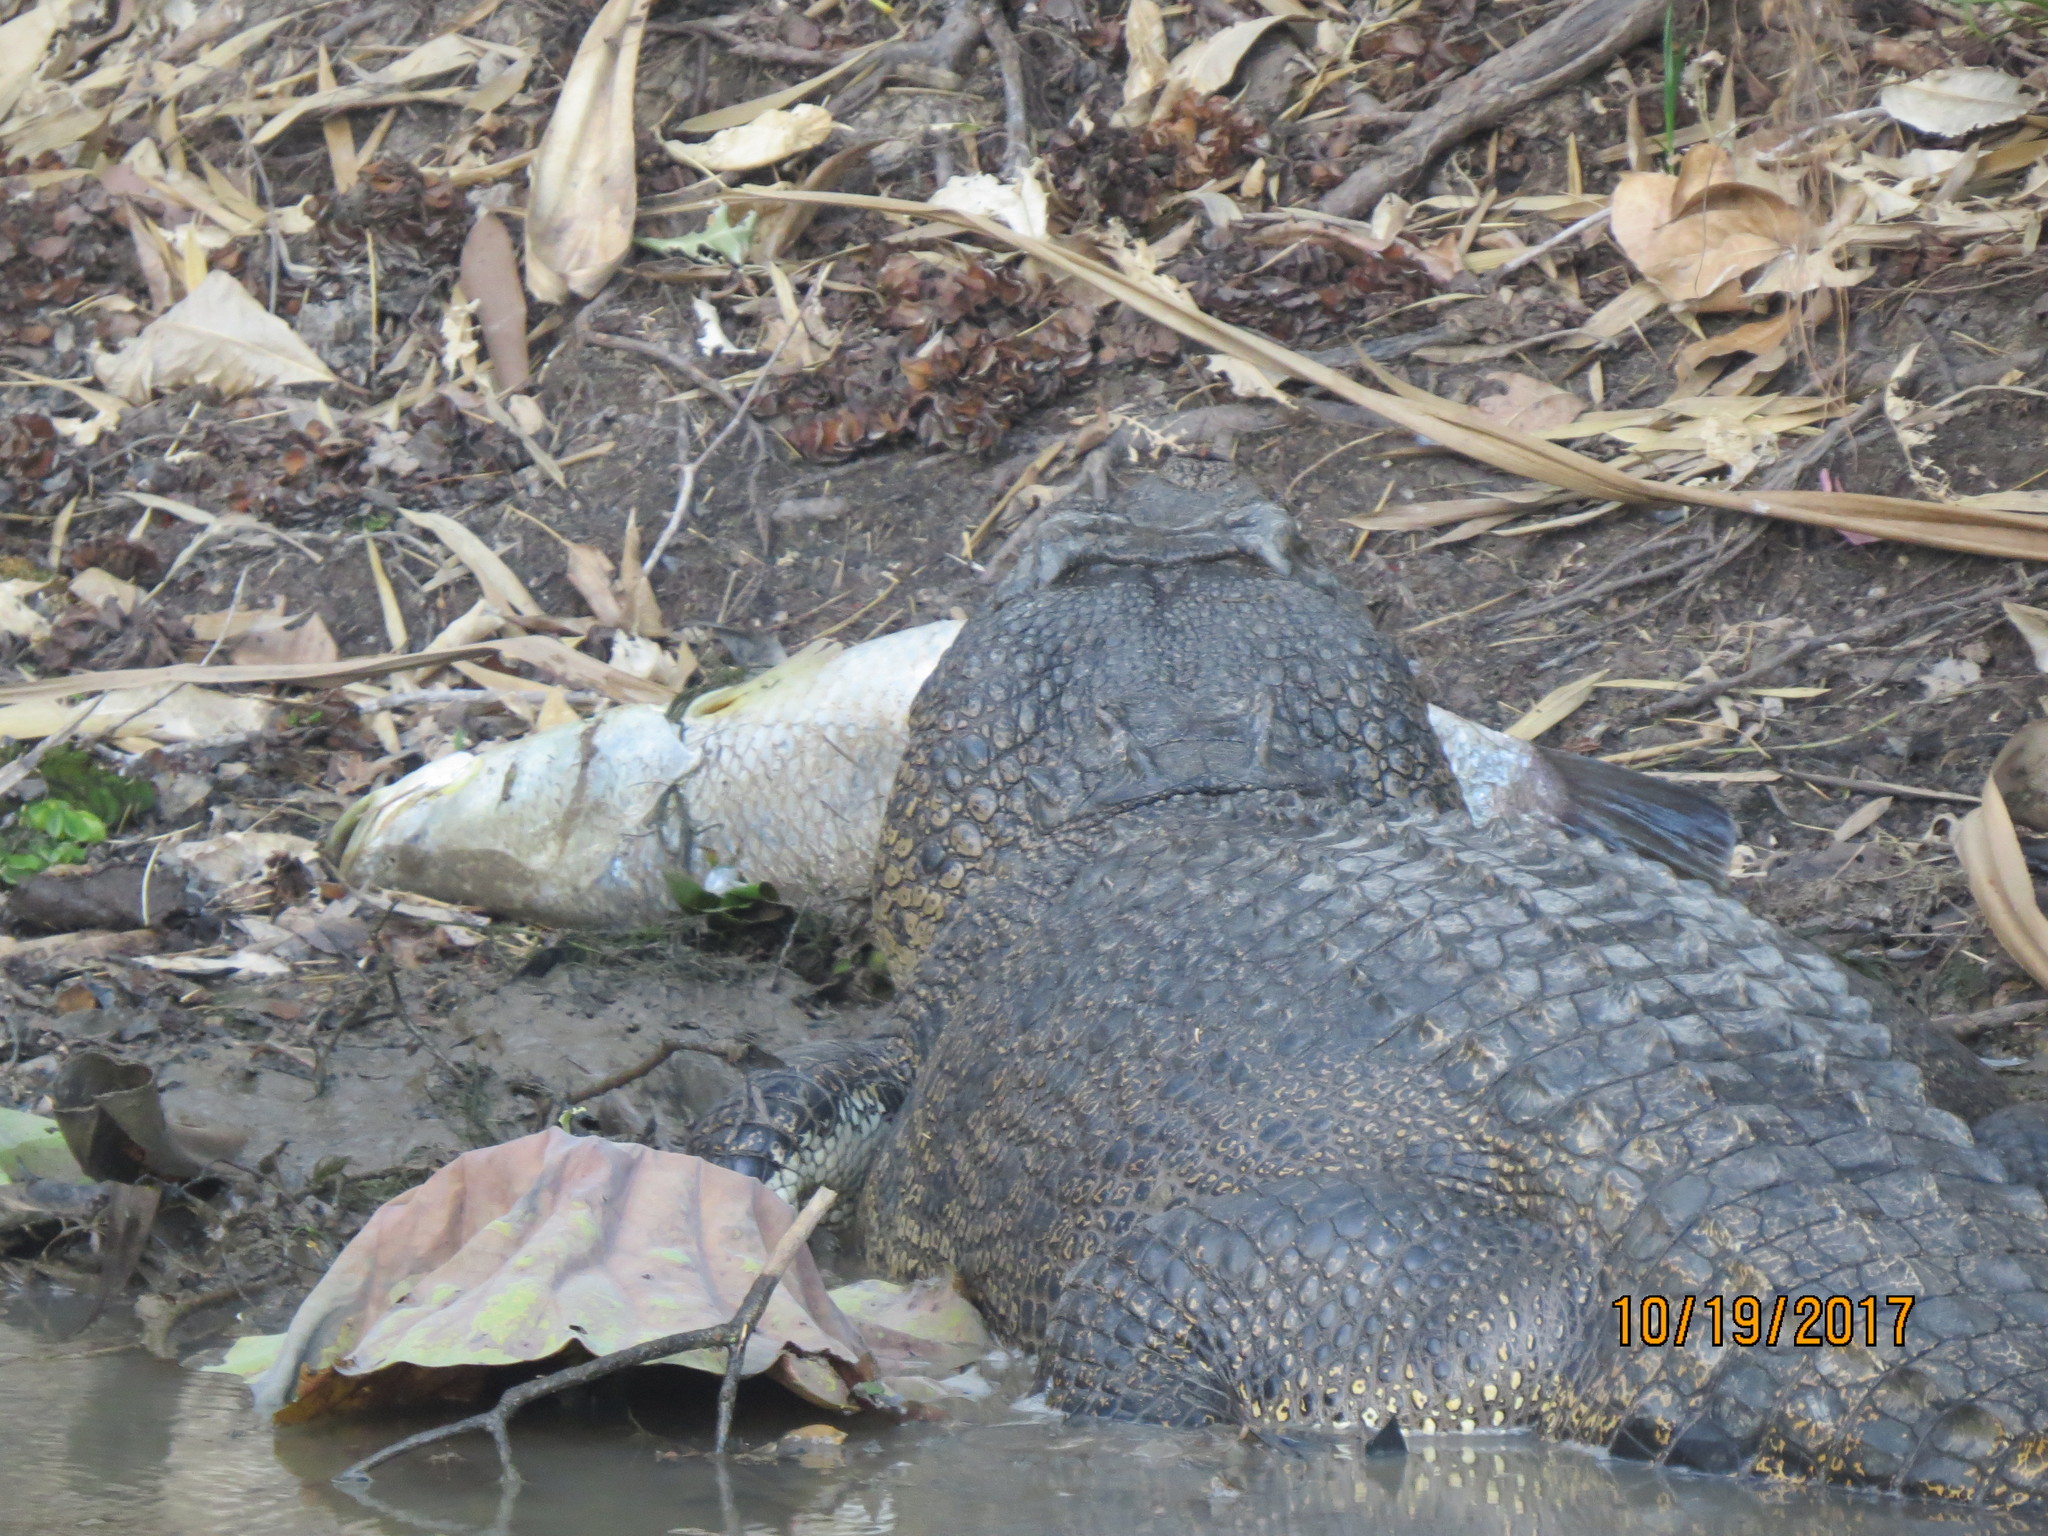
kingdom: Animalia
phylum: Chordata
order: Perciformes
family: Latidae
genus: Lates
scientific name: Lates calcarifer
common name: Barramundi
